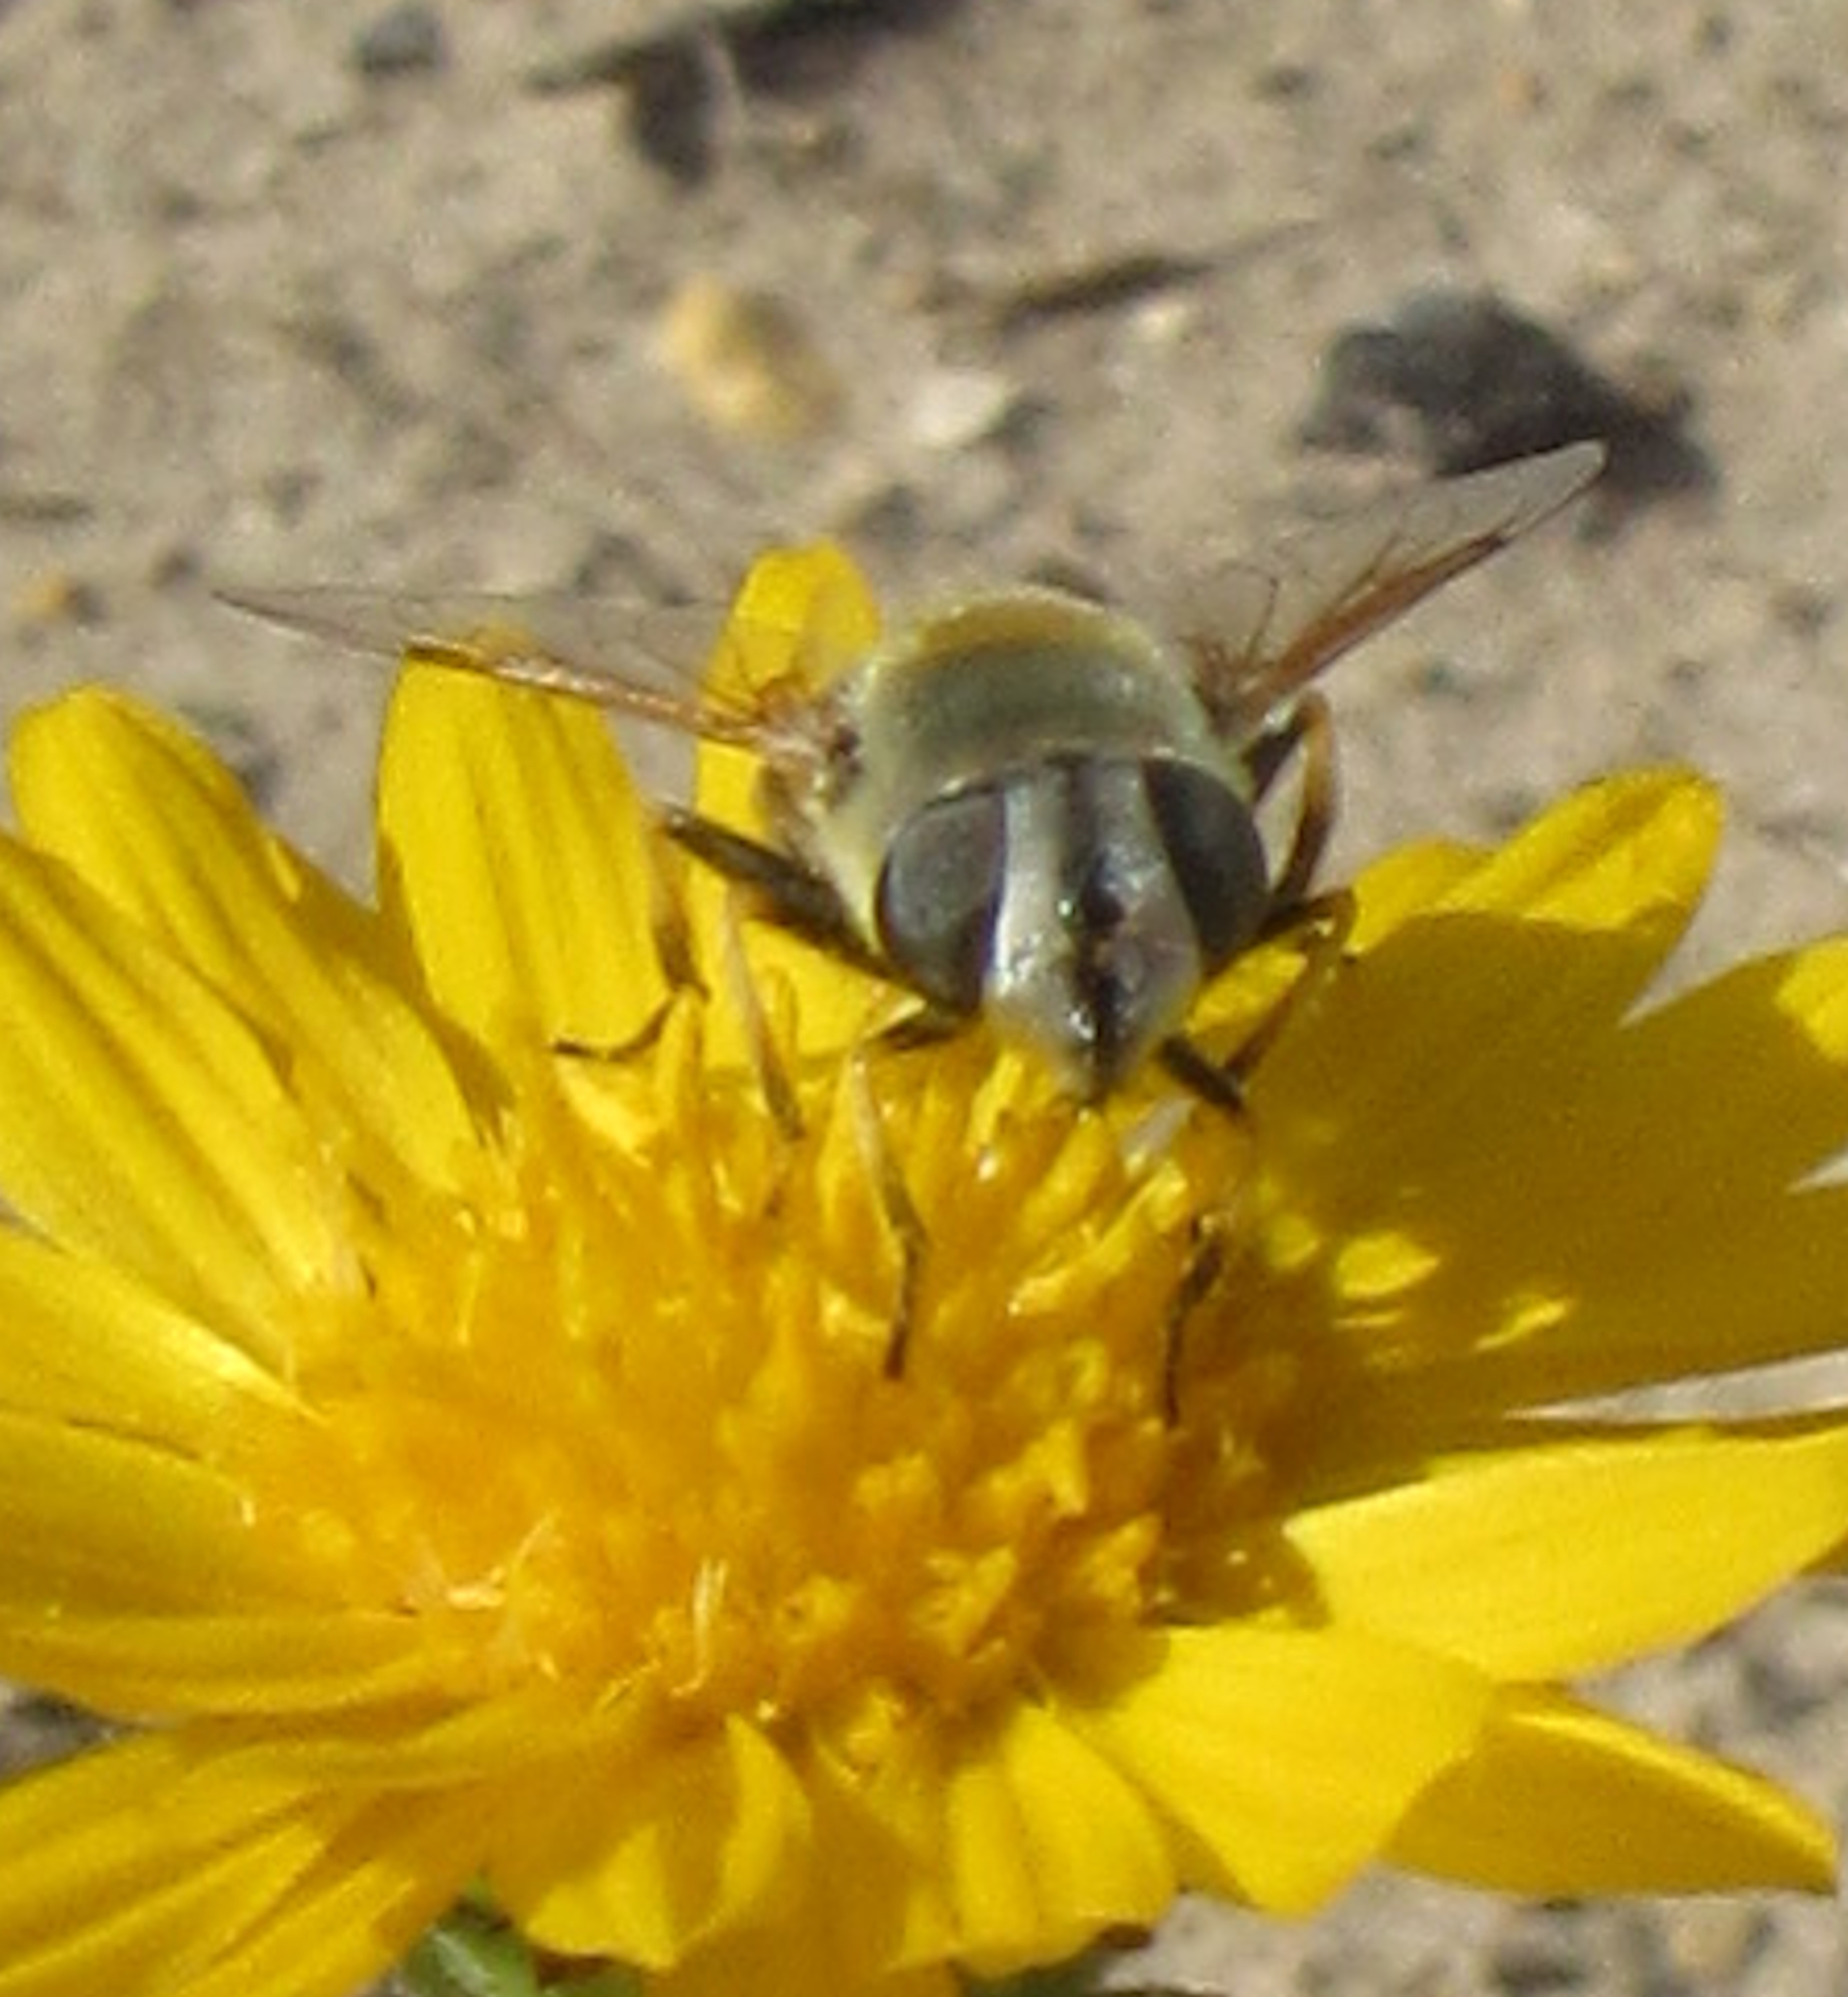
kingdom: Animalia
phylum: Arthropoda
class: Insecta
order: Diptera
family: Syrphidae
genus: Eristalis
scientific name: Eristalis stipator
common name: Yellow-shouldered drone fly
